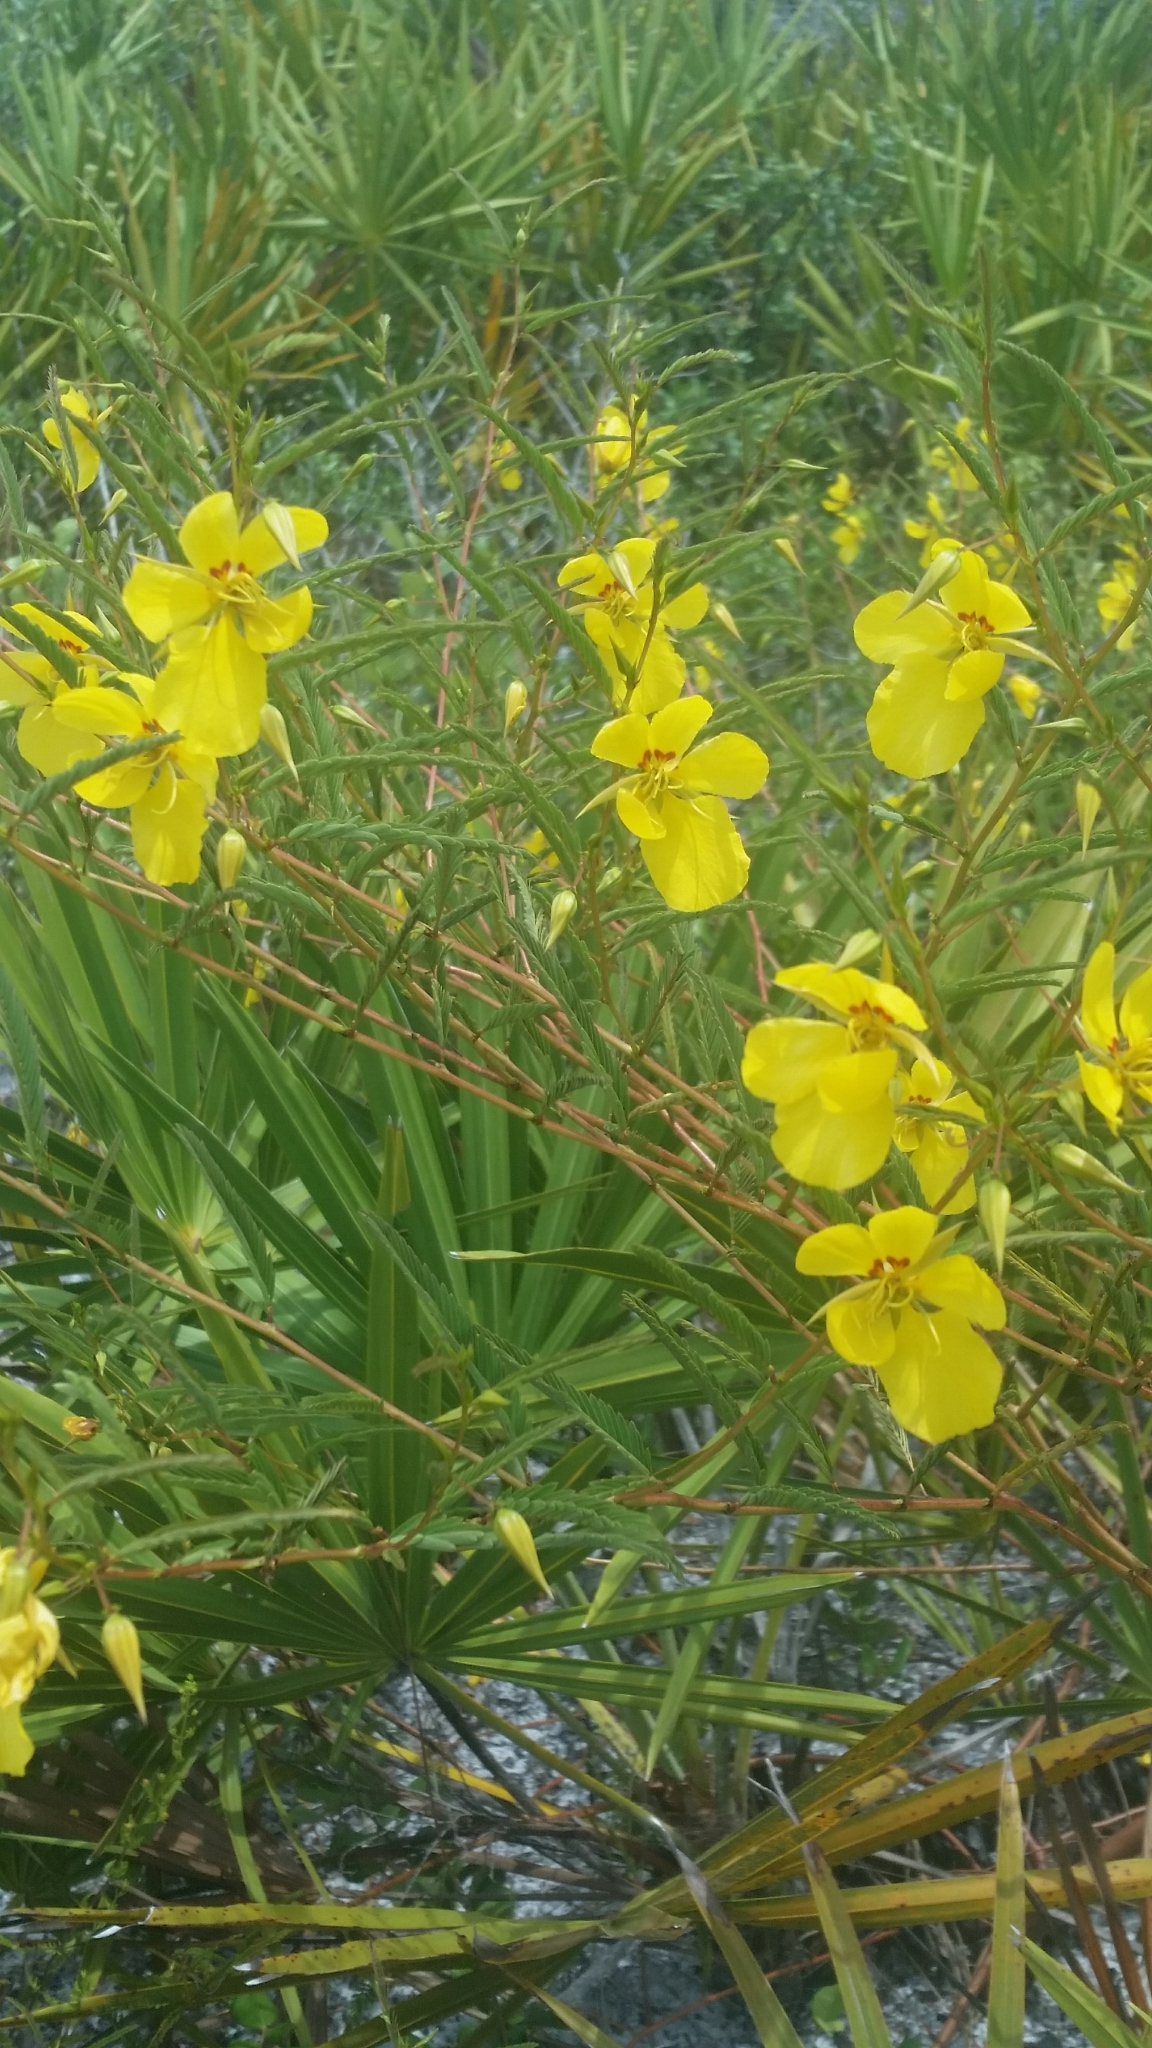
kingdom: Plantae
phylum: Tracheophyta
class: Magnoliopsida
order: Fabales
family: Fabaceae
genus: Chamaecrista
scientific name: Chamaecrista fasciculata
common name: Golden cassia
